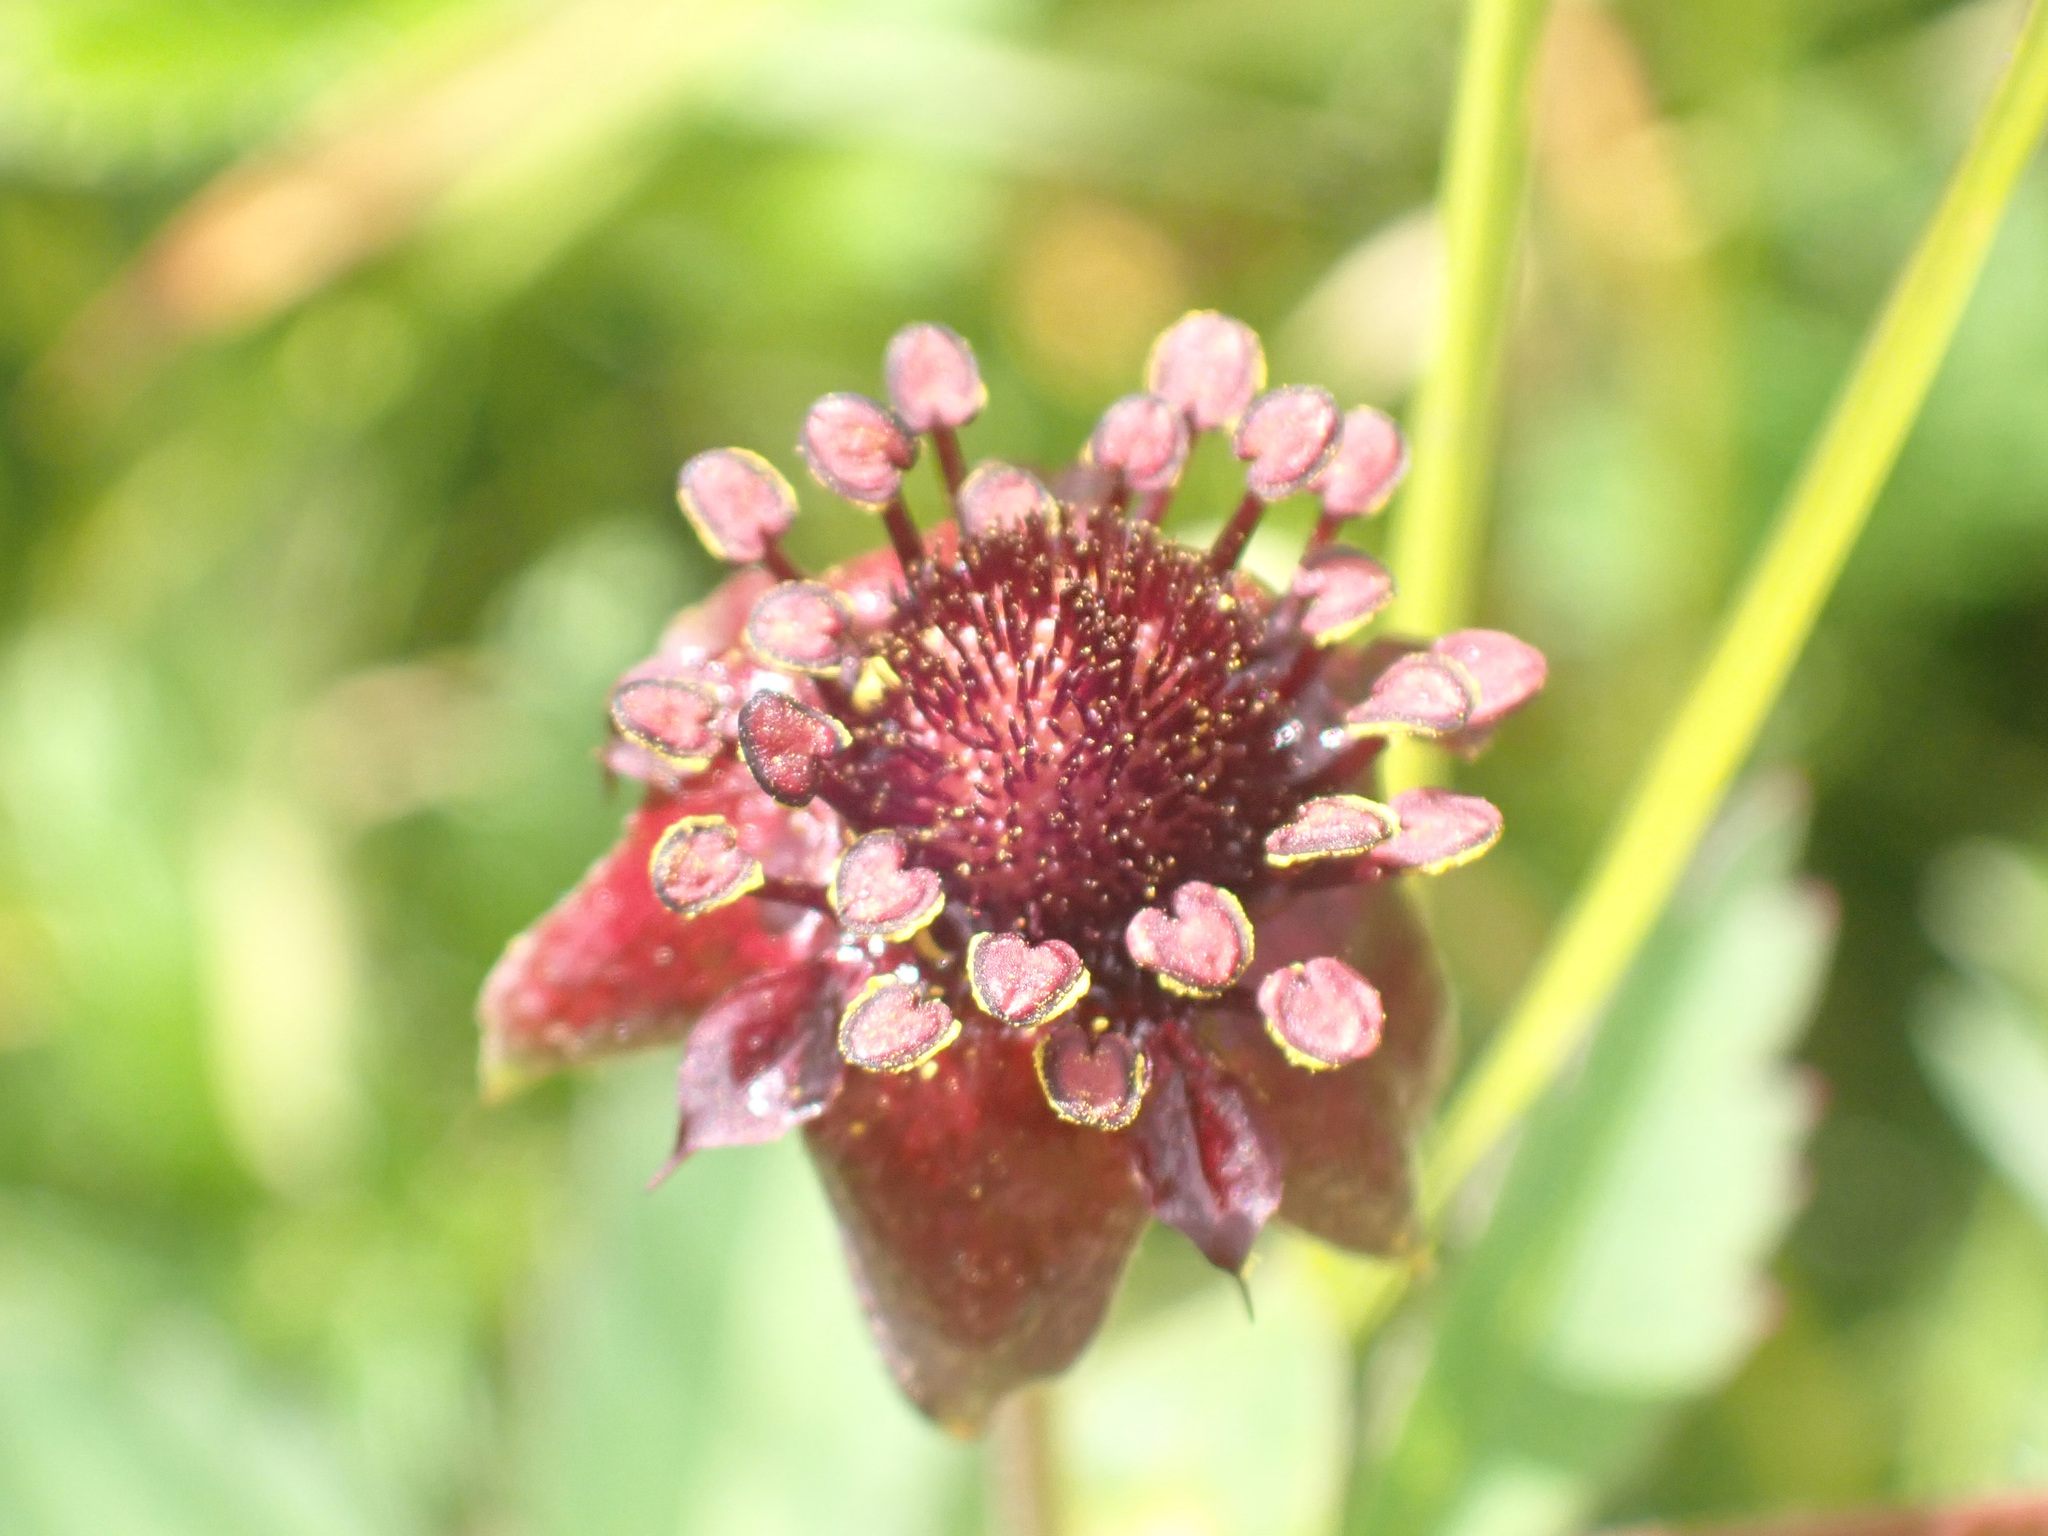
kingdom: Plantae
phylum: Tracheophyta
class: Magnoliopsida
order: Rosales
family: Rosaceae
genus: Comarum
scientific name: Comarum palustre
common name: Marsh cinquefoil
